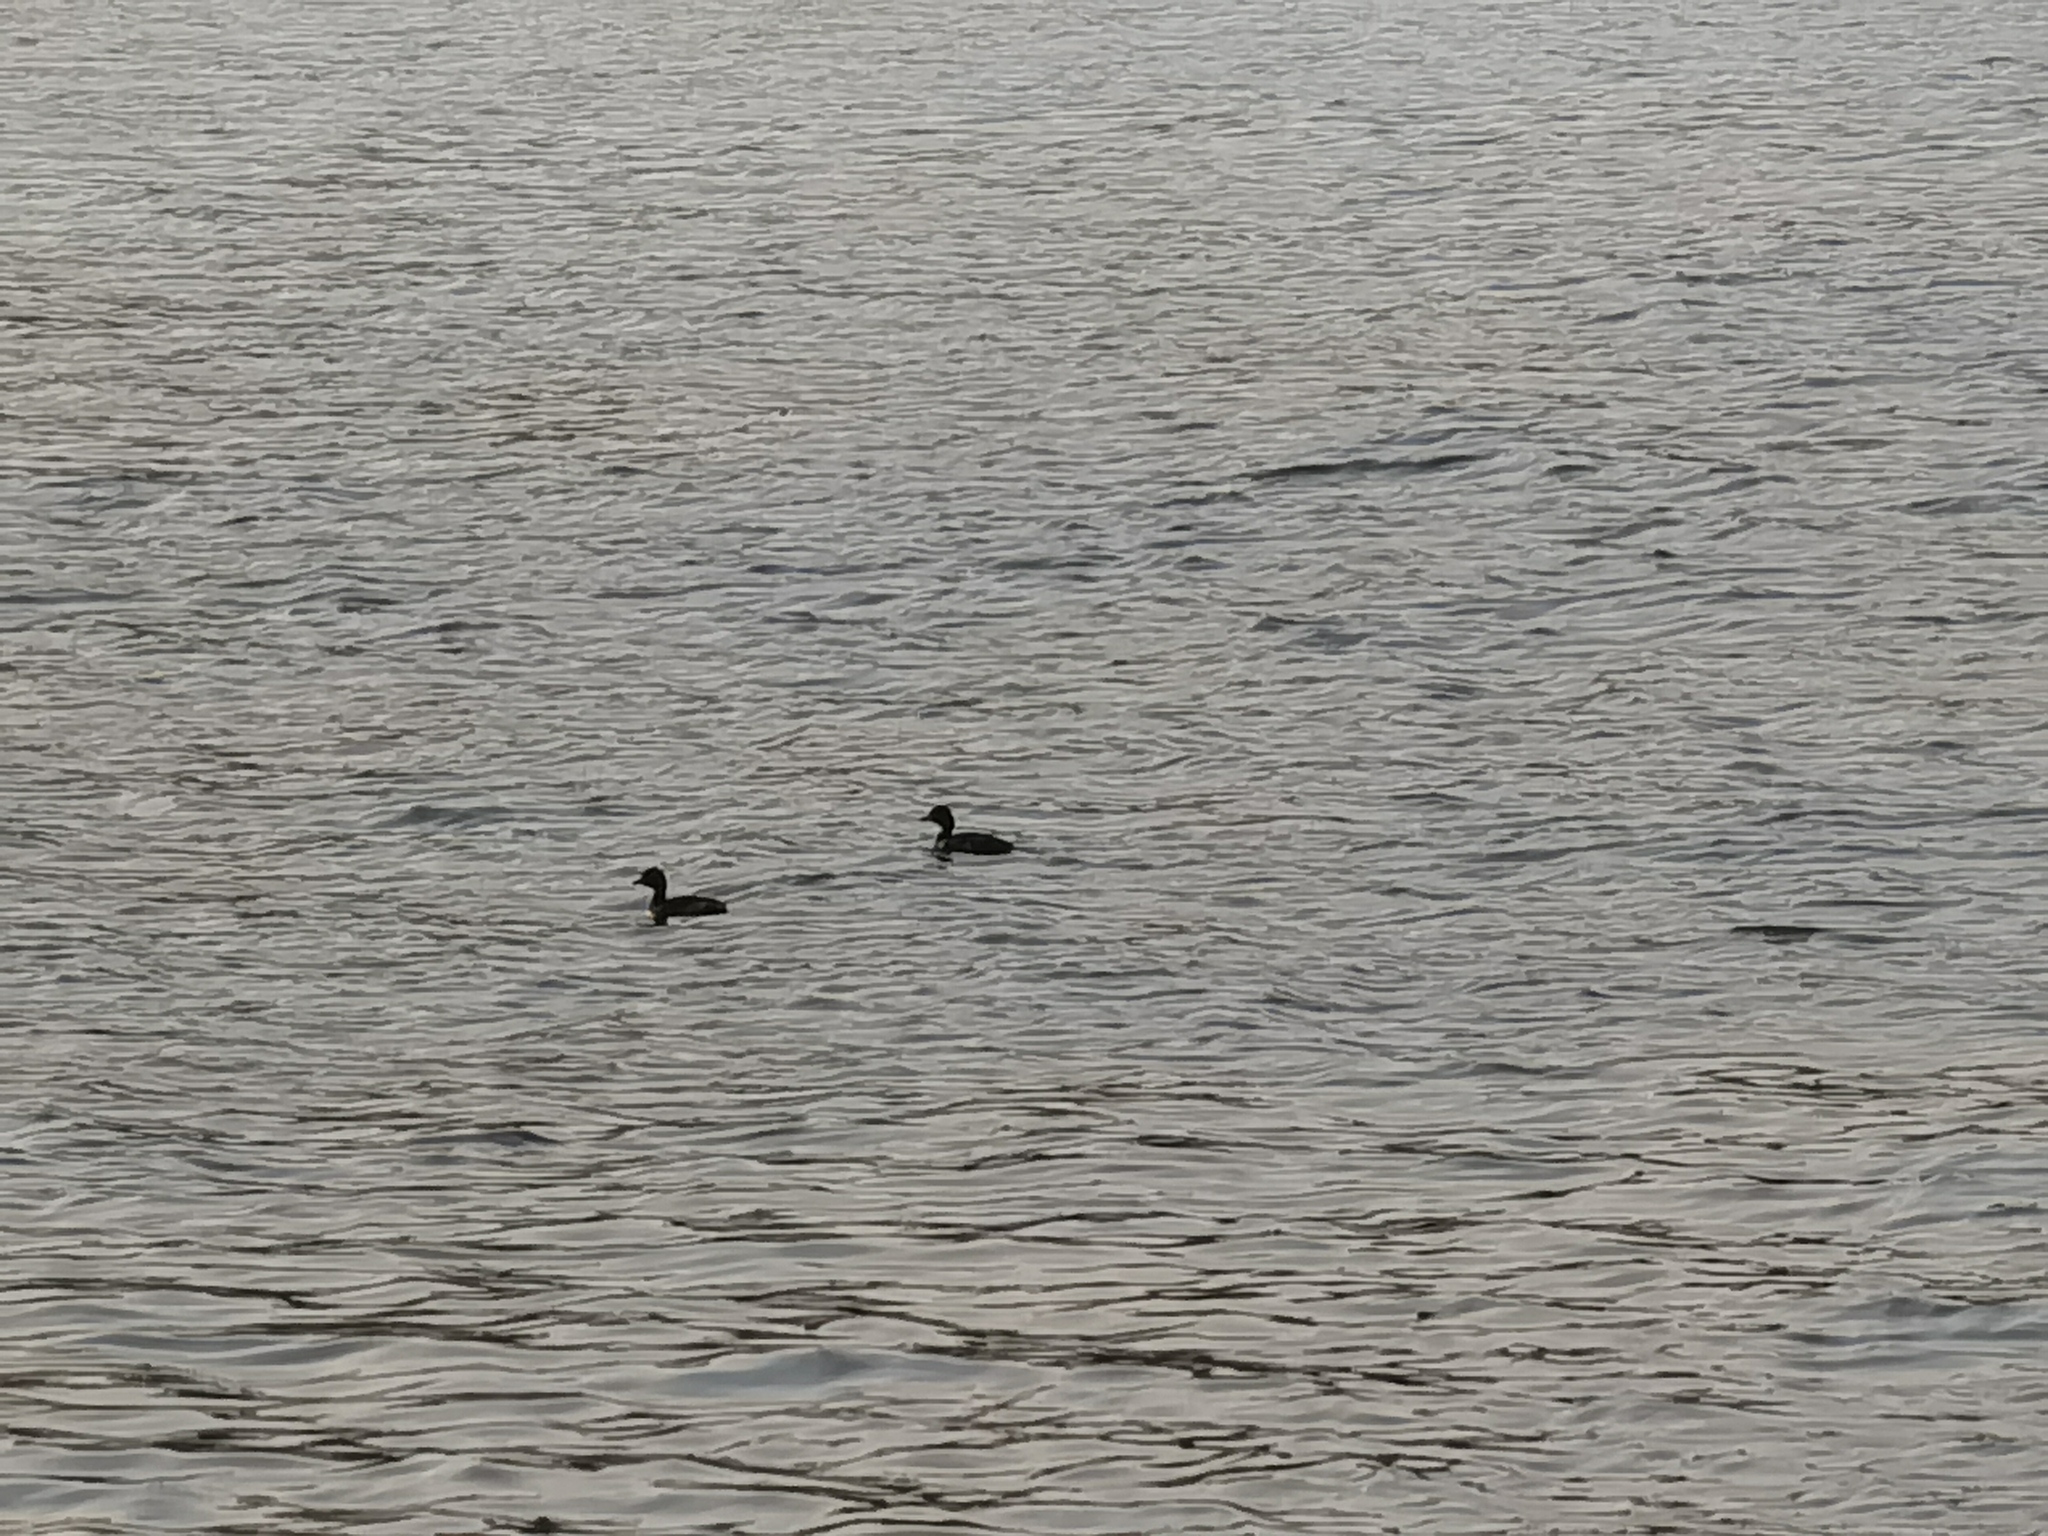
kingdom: Animalia
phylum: Chordata
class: Aves
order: Podicipediformes
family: Podicipedidae
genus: Tachybaptus
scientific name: Tachybaptus ruficollis
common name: Little grebe
